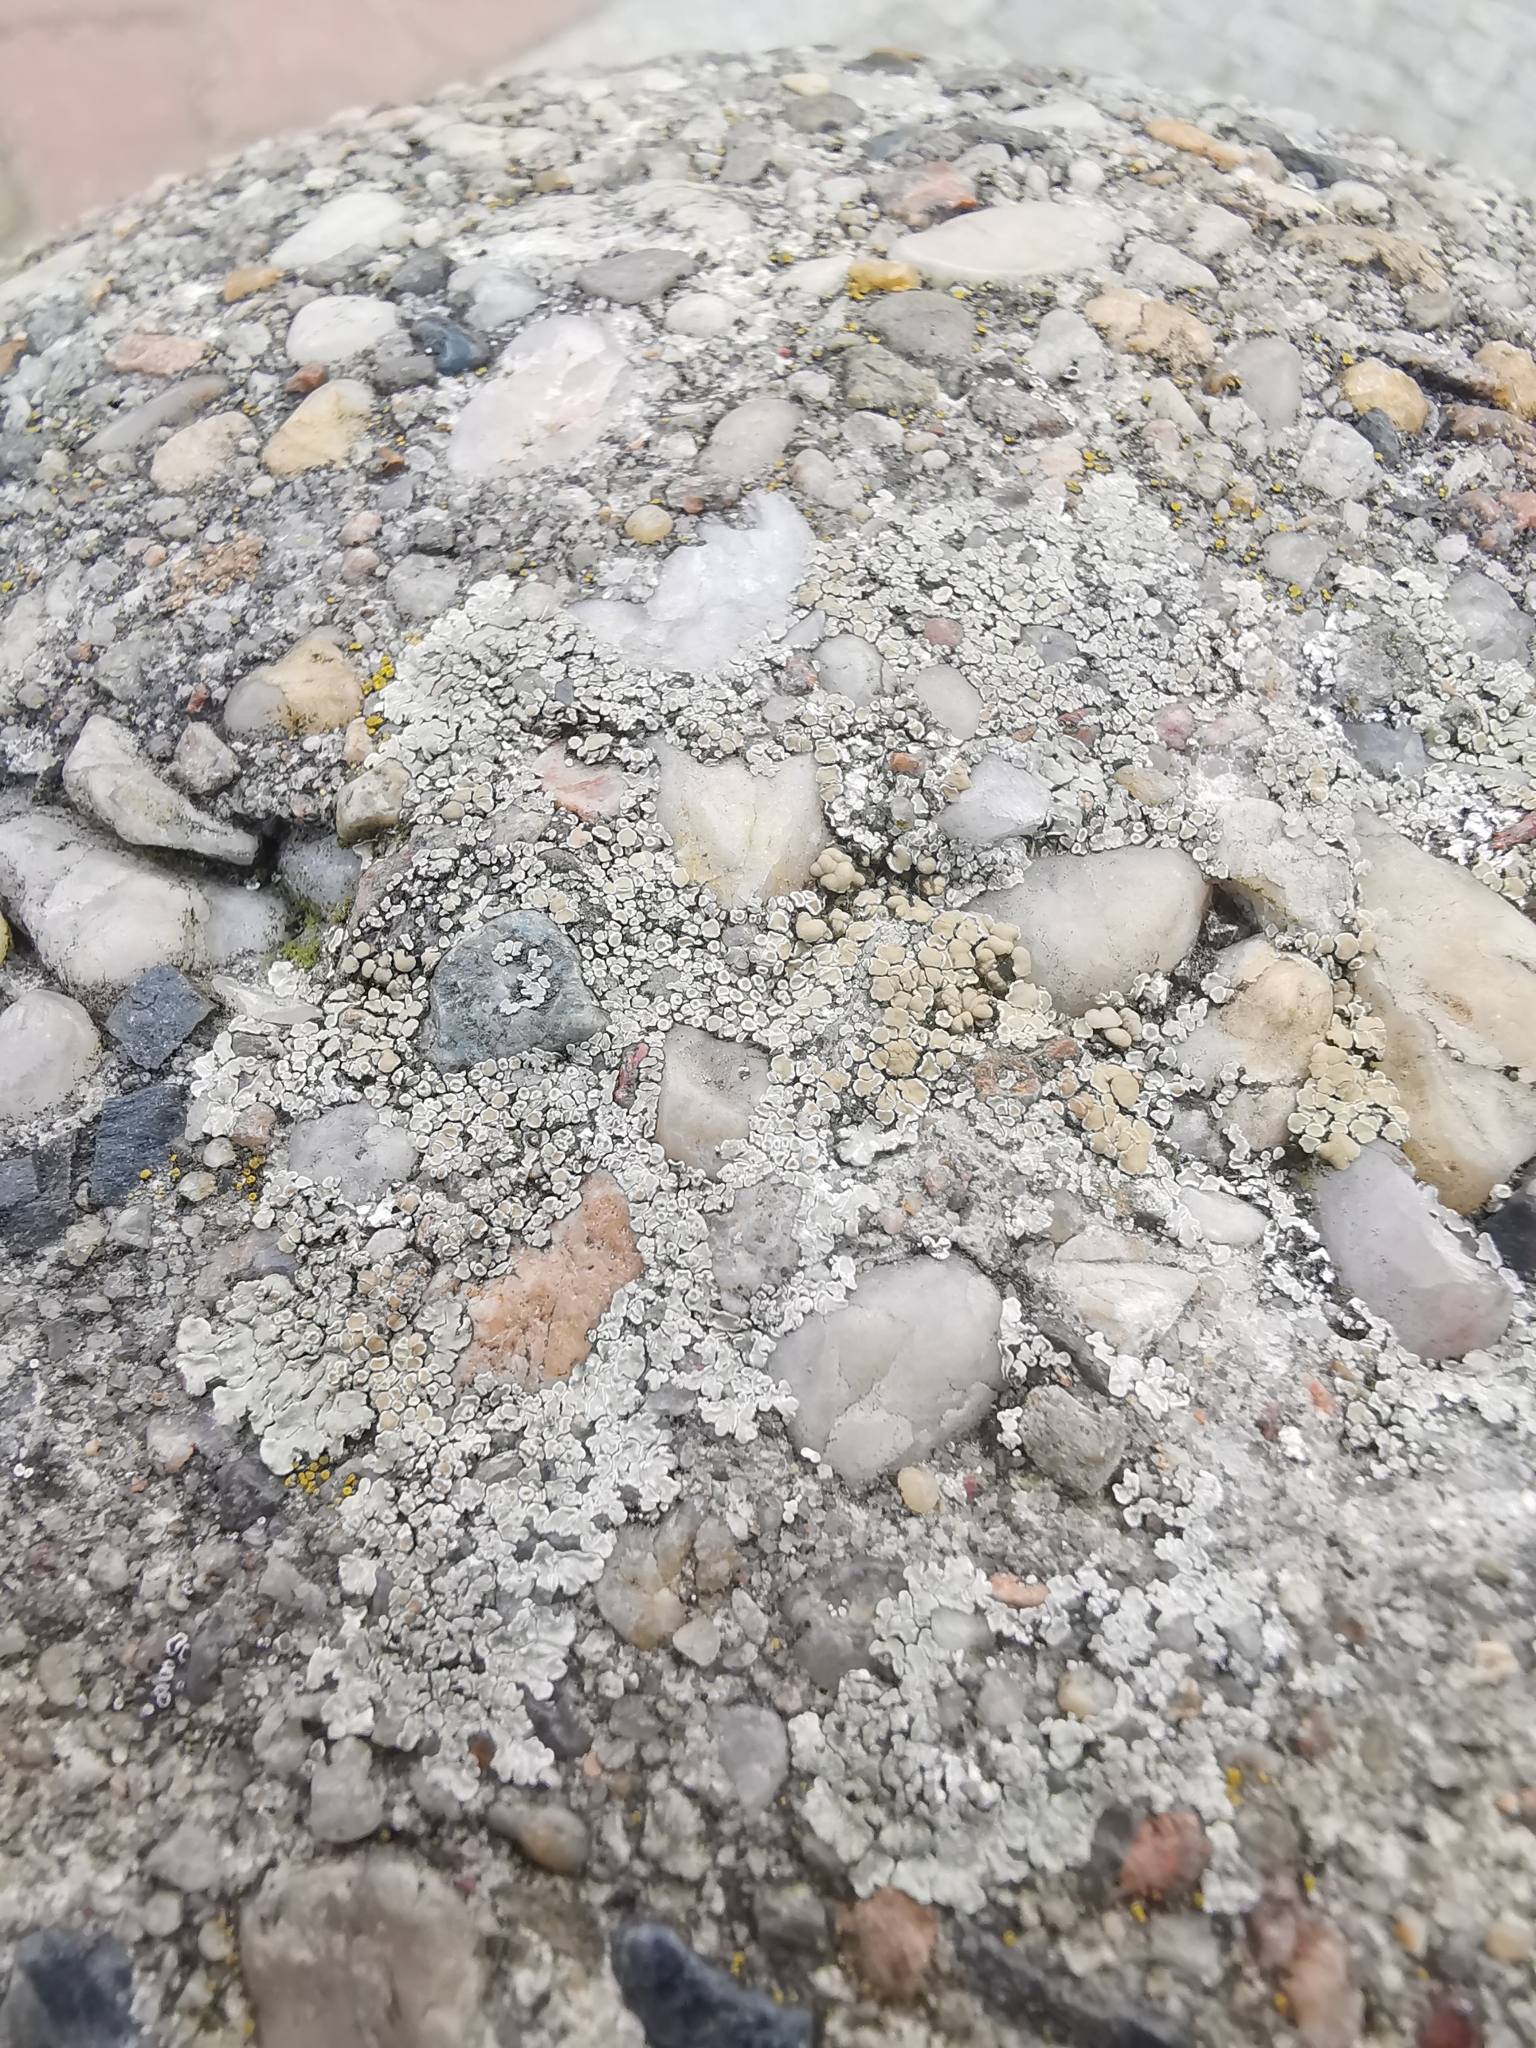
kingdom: Fungi
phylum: Ascomycota
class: Lecanoromycetes
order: Lecanorales
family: Lecanoraceae
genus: Protoparmeliopsis
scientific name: Protoparmeliopsis muralis
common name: Stonewall rim lichen
